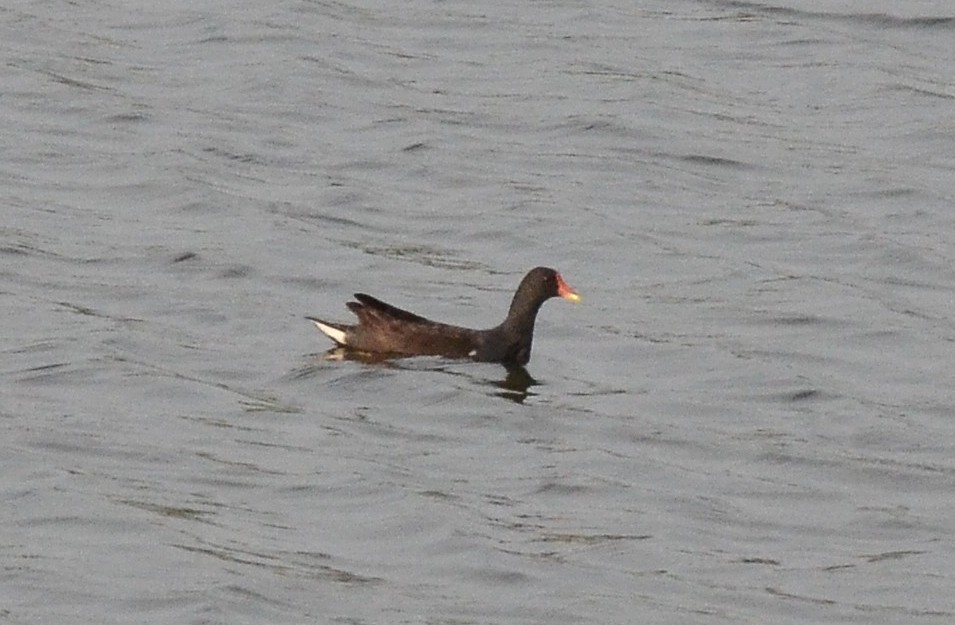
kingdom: Animalia
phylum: Chordata
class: Aves
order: Gruiformes
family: Rallidae
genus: Gallinula
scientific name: Gallinula chloropus
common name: Common moorhen
